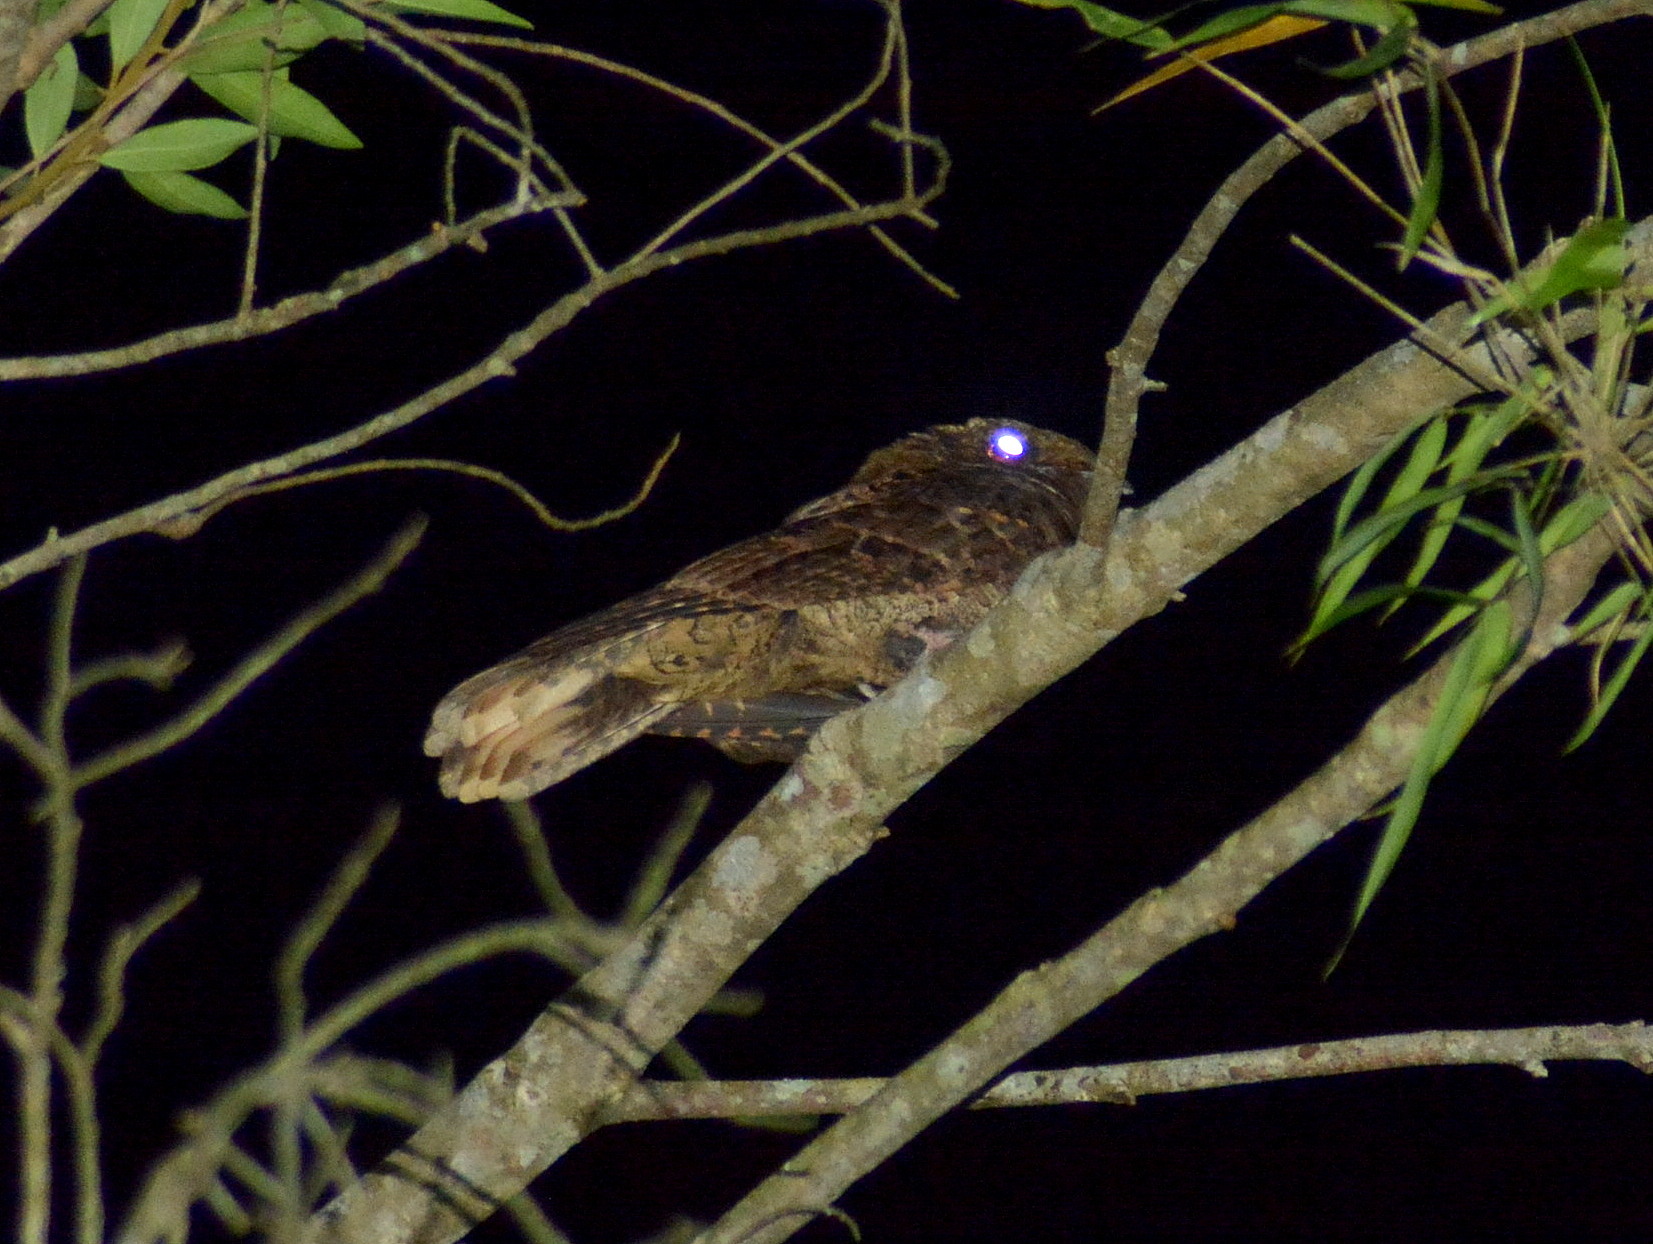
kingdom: Animalia
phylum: Chordata
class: Aves
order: Caprimulgiformes
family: Caprimulgidae
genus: Antrostomus
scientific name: Antrostomus rufus
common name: Rufous nightjar
